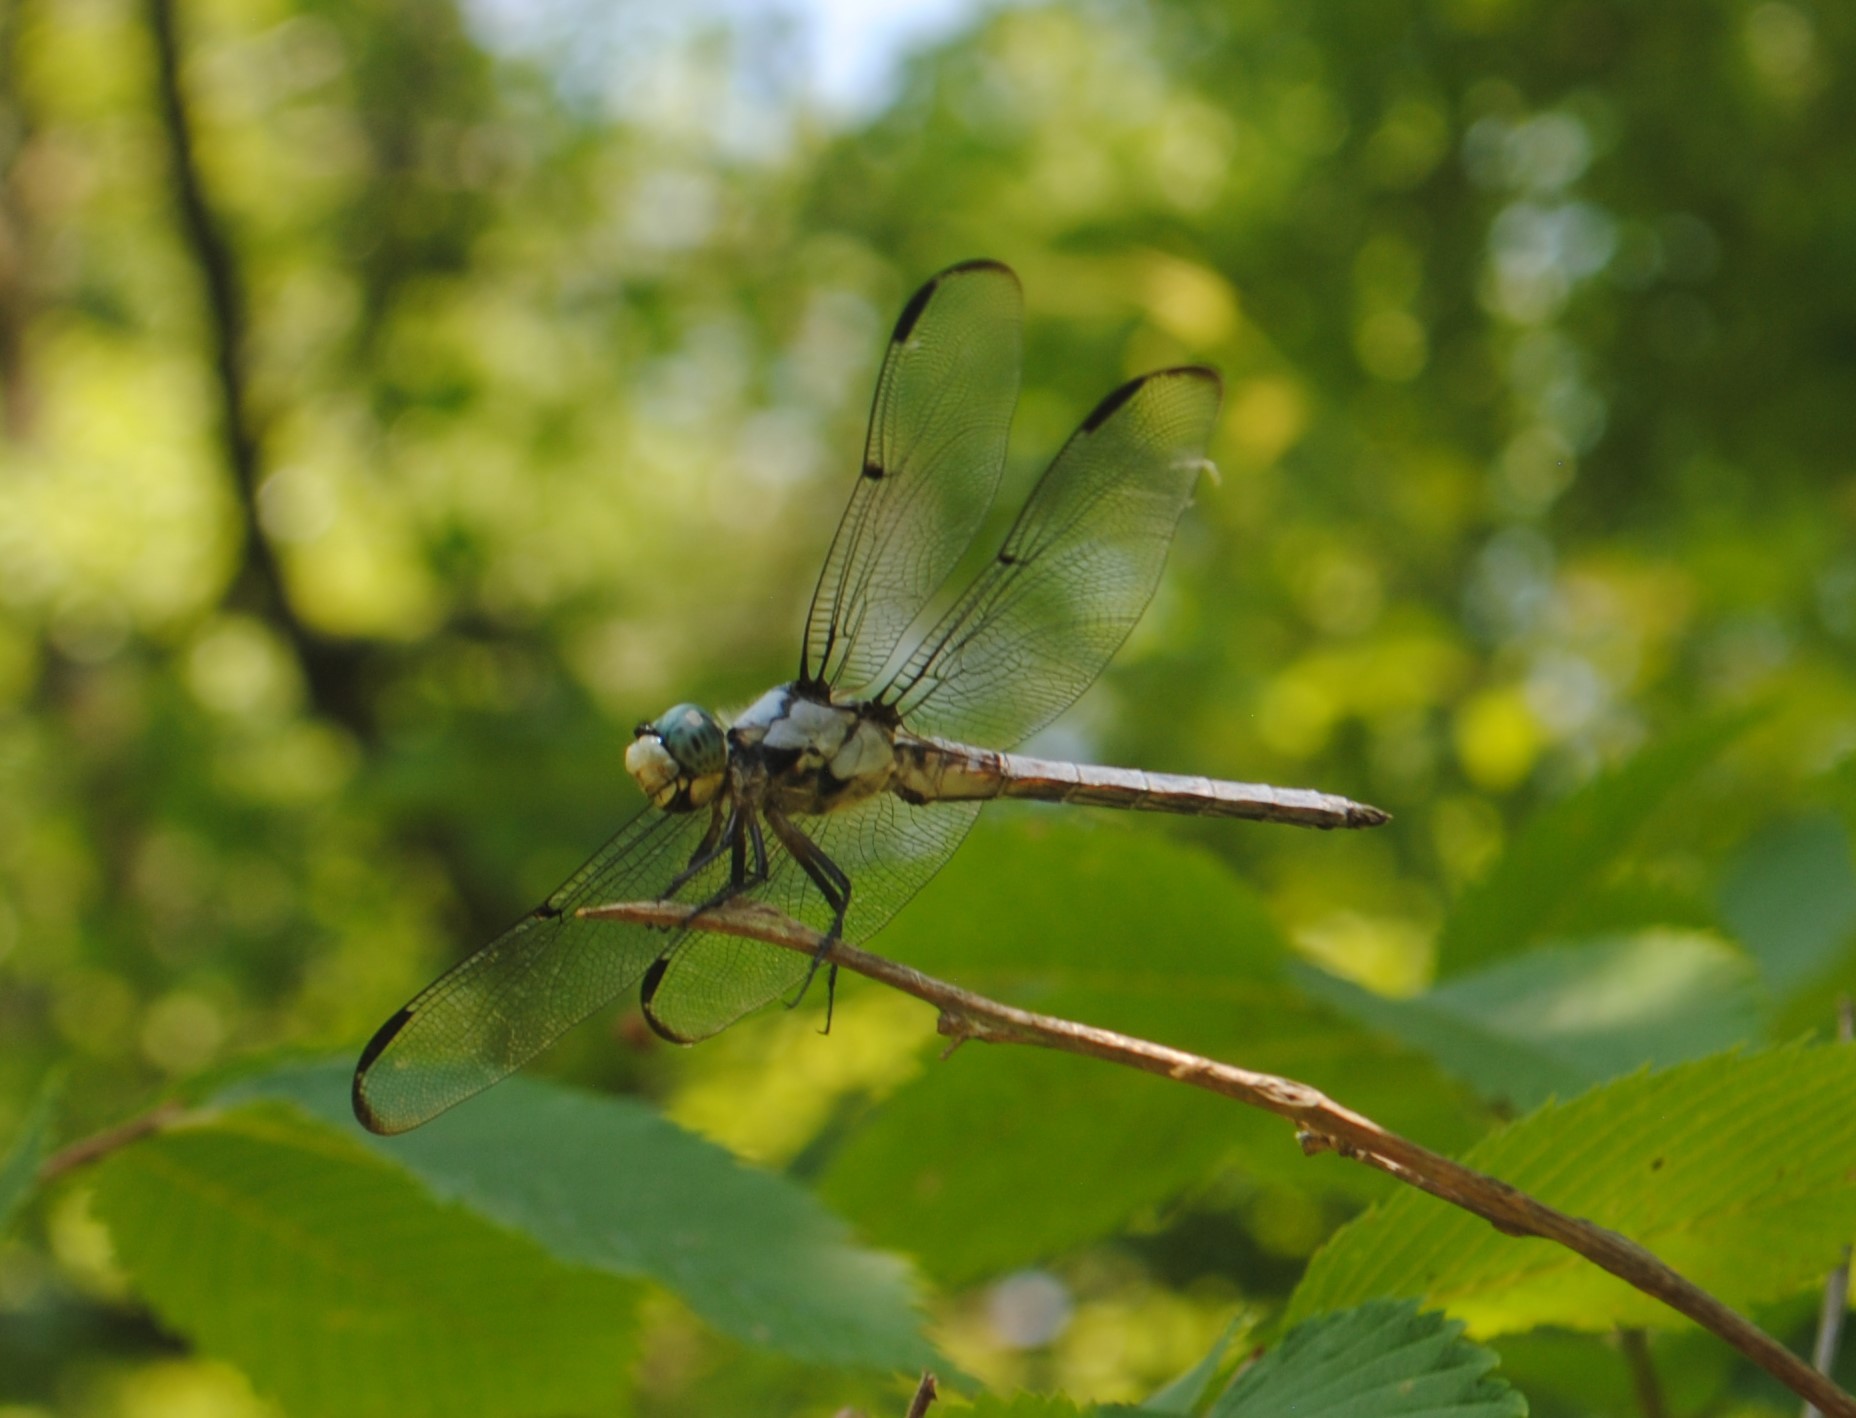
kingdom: Animalia
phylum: Arthropoda
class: Insecta
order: Odonata
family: Libellulidae
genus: Libellula
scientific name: Libellula vibrans
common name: Great blue skimmer
